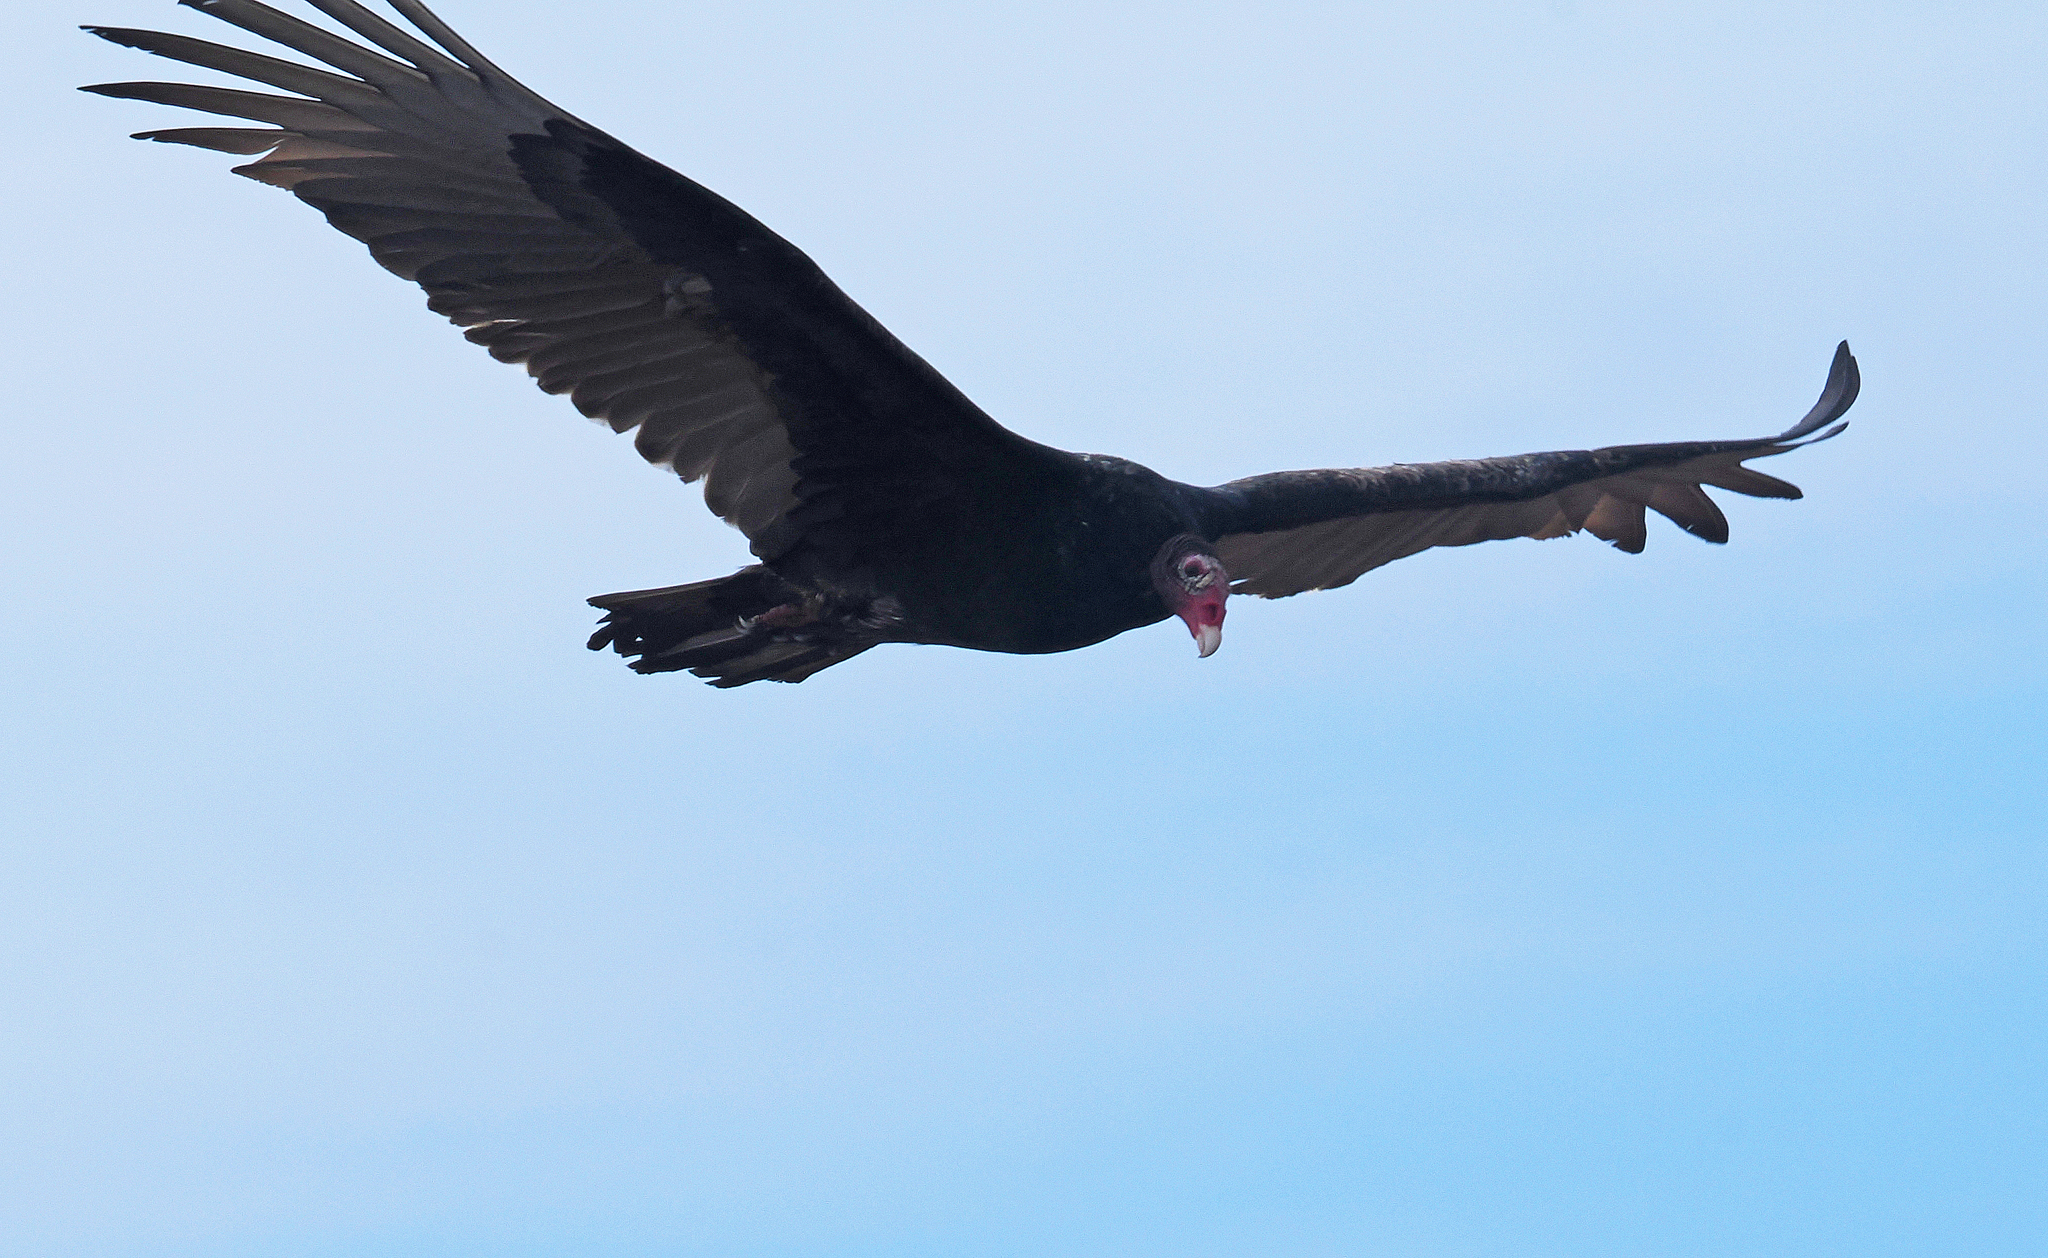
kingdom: Animalia
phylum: Chordata
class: Aves
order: Accipitriformes
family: Cathartidae
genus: Cathartes
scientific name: Cathartes aura
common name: Turkey vulture
